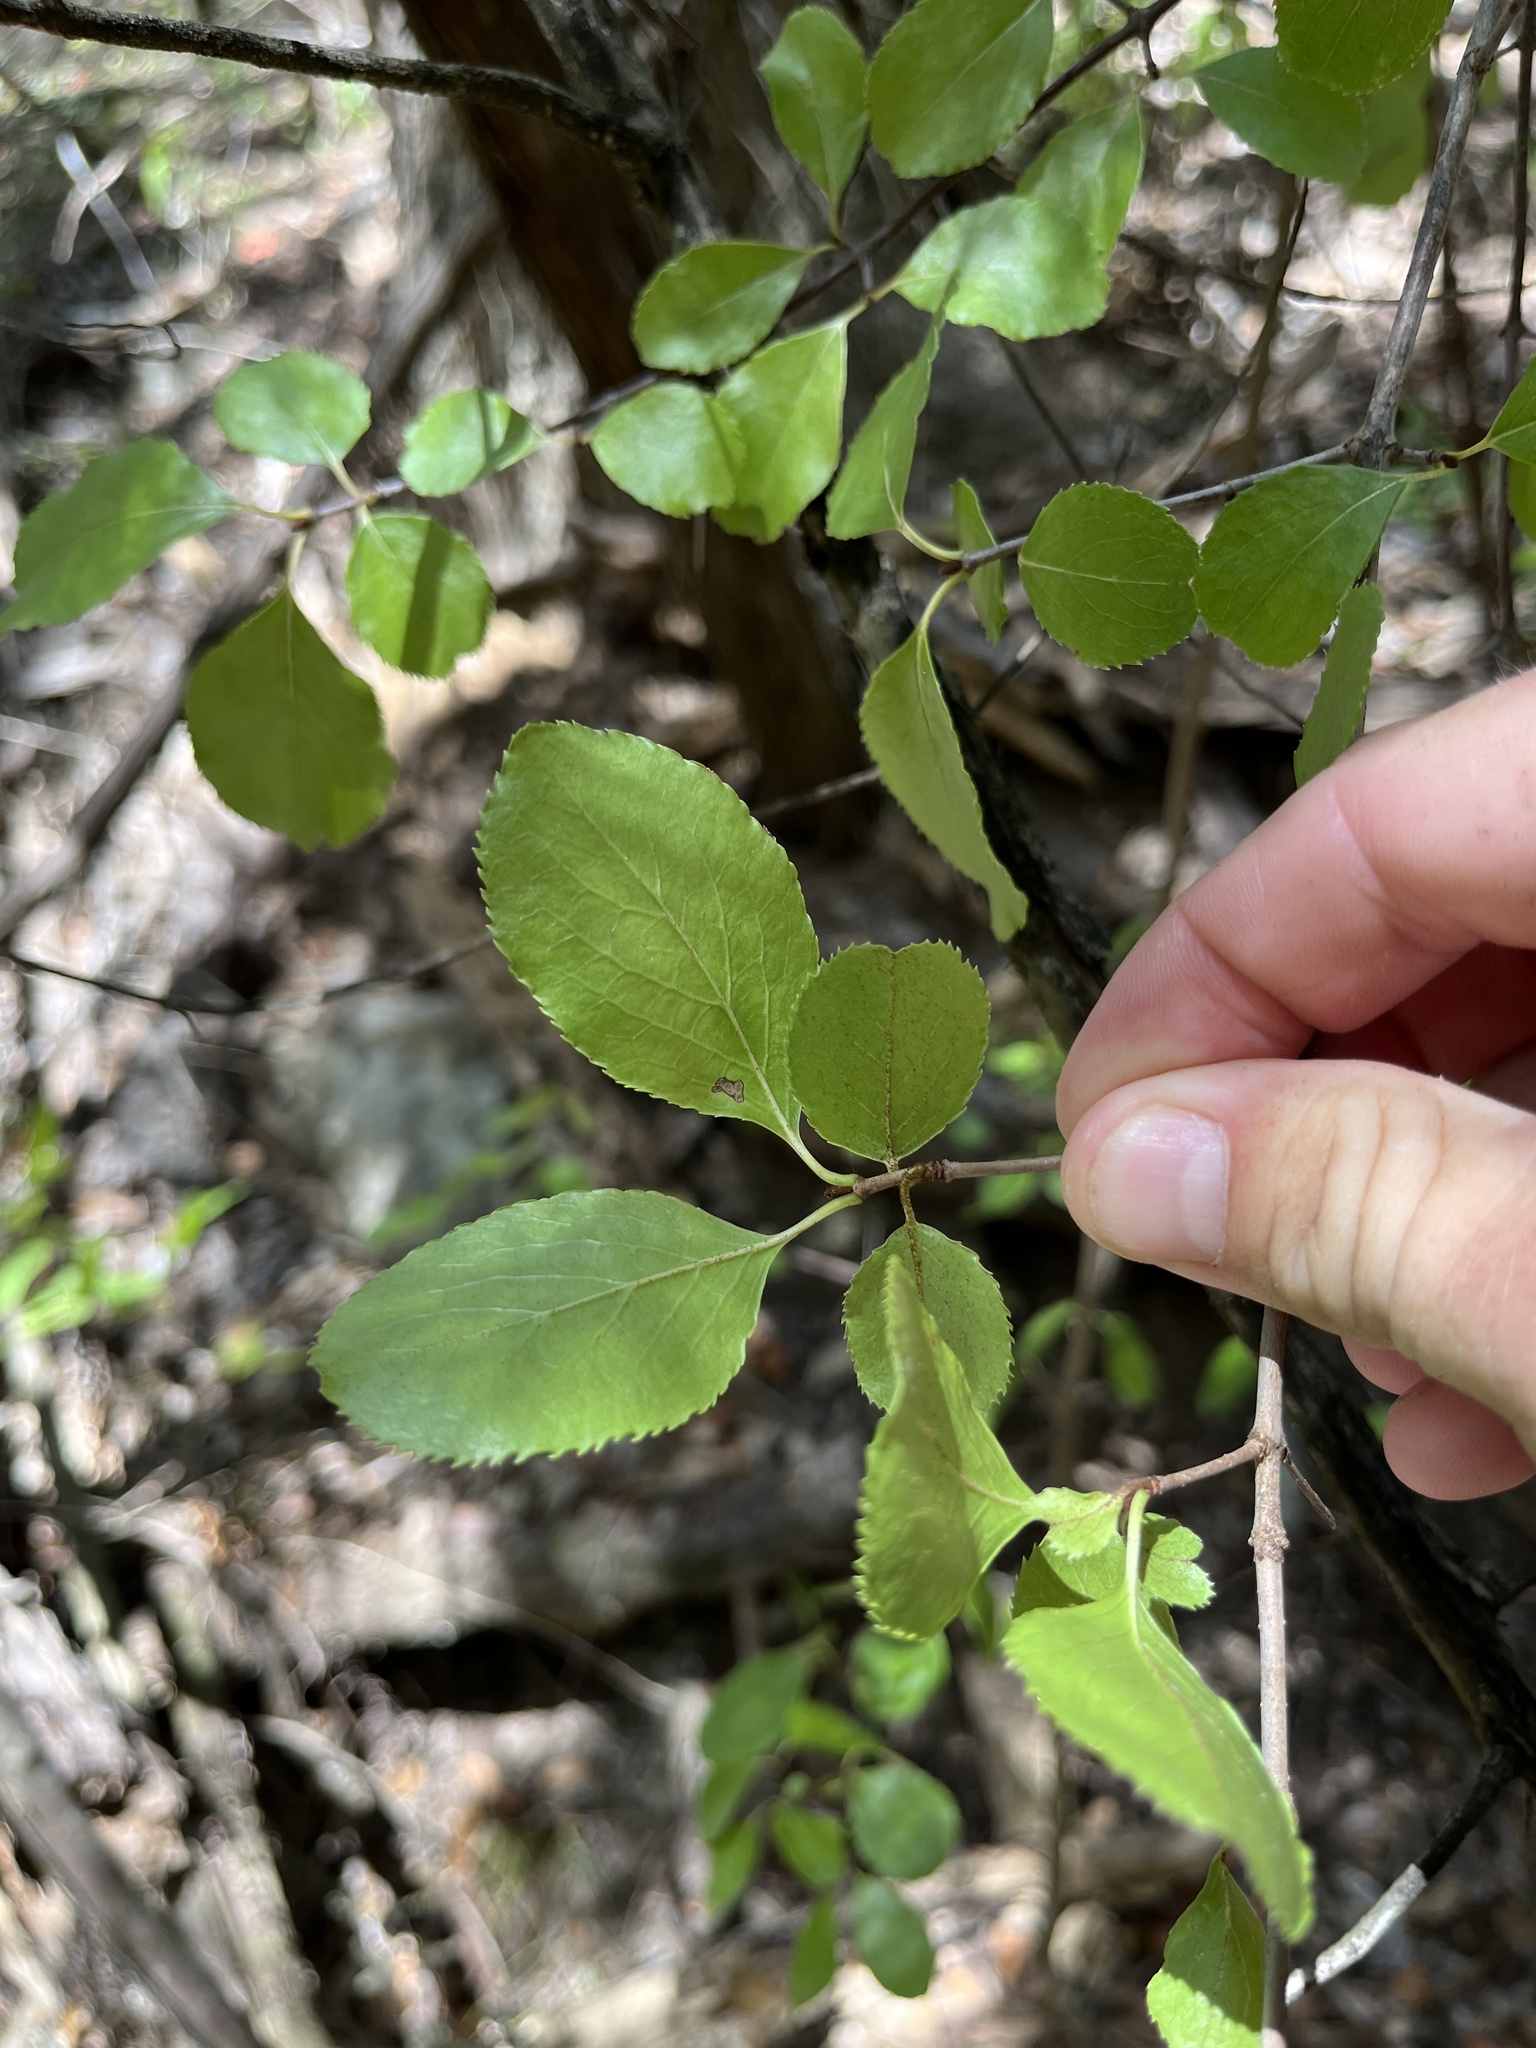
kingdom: Plantae
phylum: Tracheophyta
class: Magnoliopsida
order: Dipsacales
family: Viburnaceae
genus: Viburnum
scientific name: Viburnum rufidulum
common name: Blue haw
